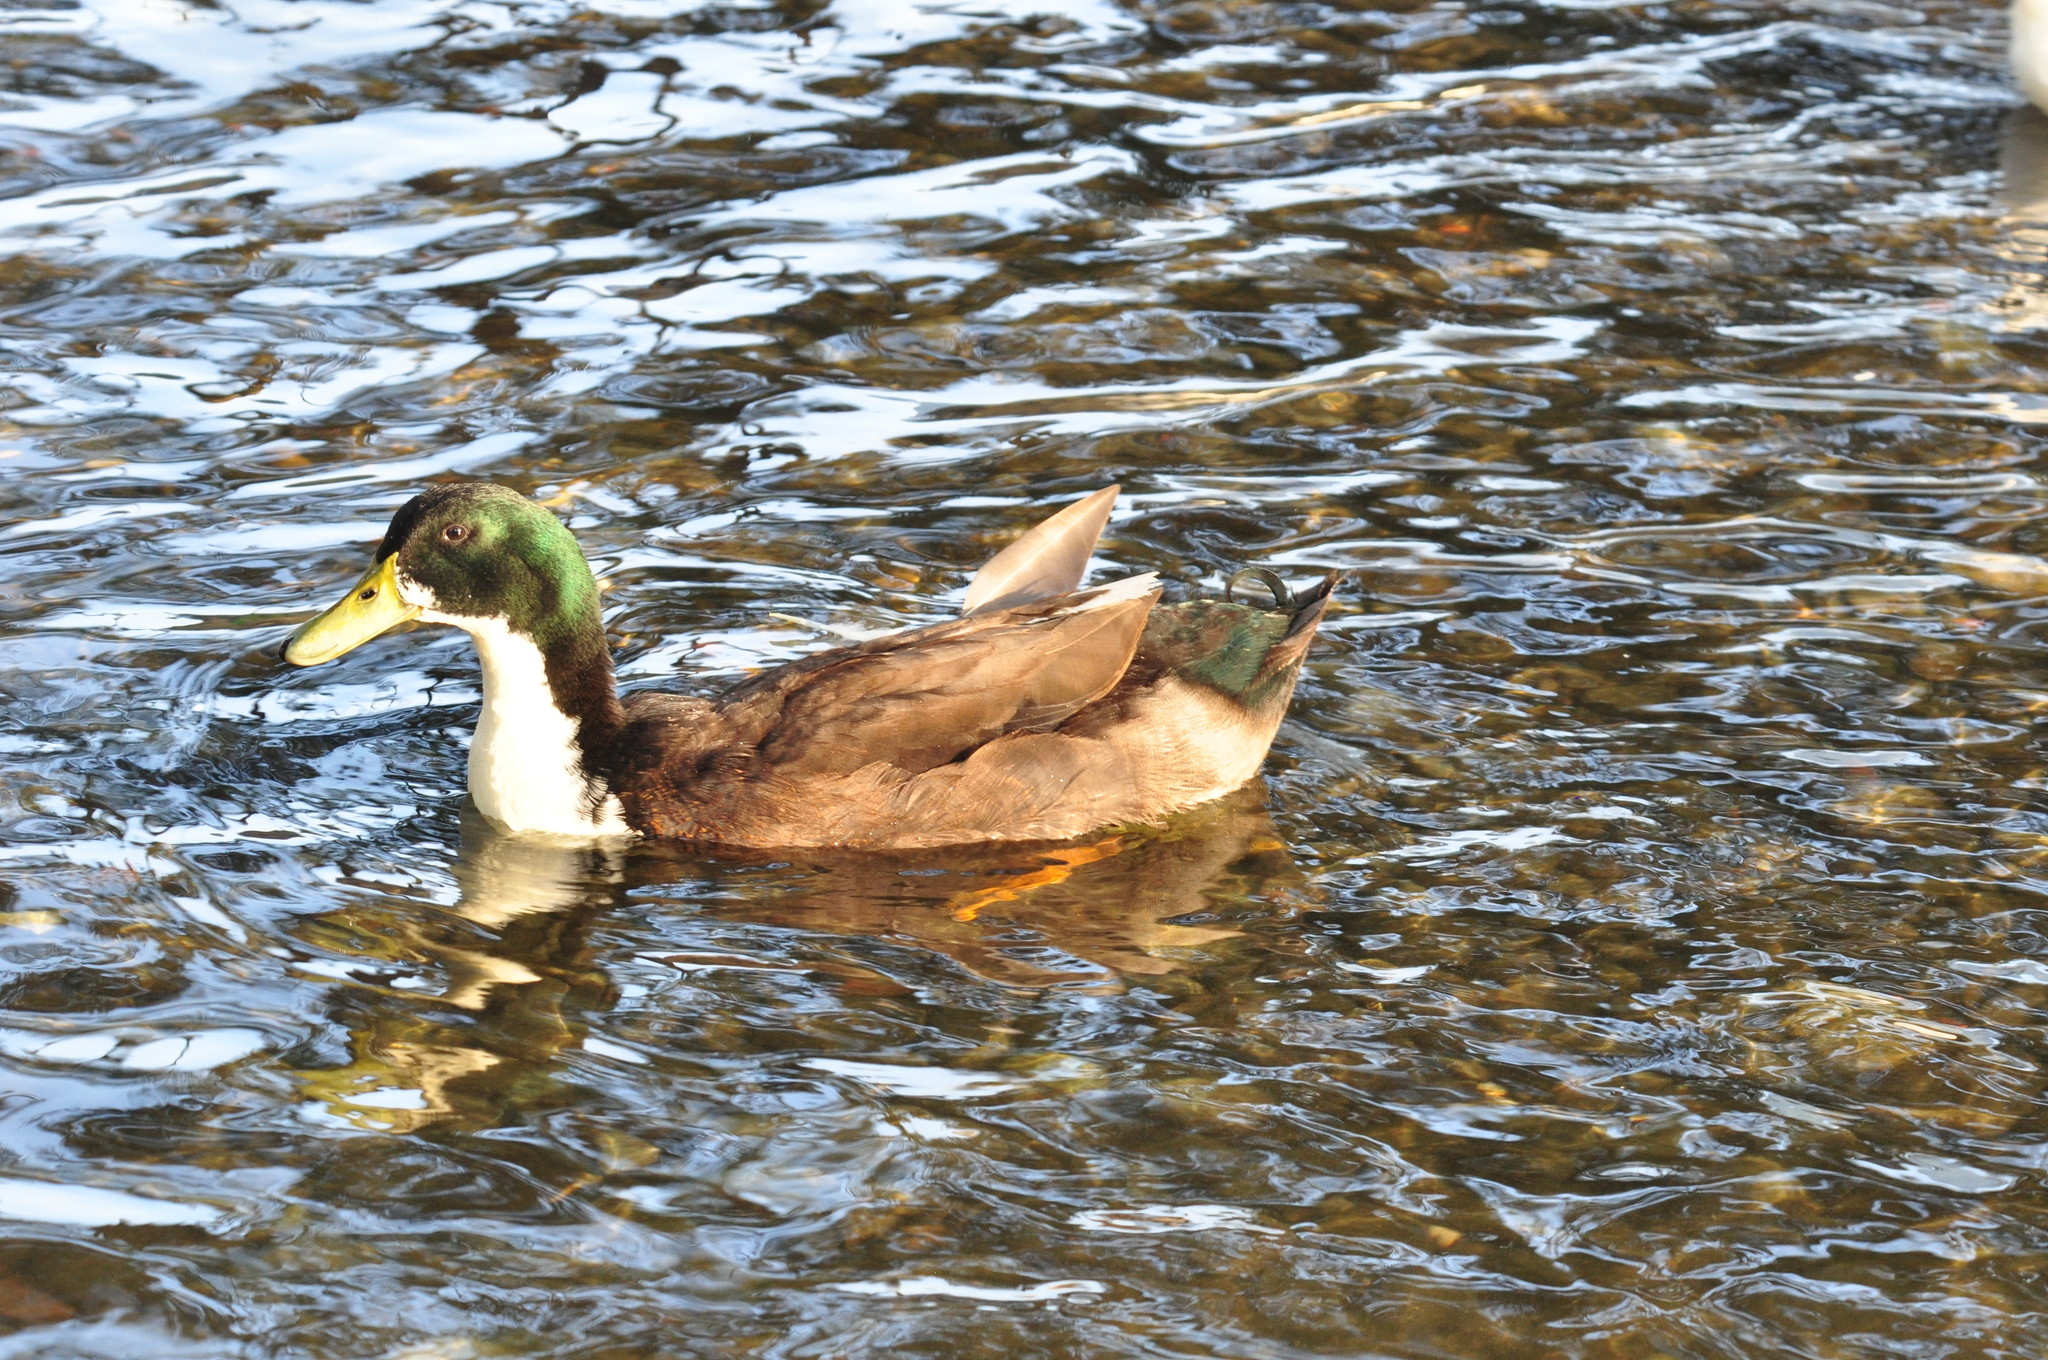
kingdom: Animalia
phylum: Chordata
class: Aves
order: Anseriformes
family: Anatidae
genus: Anas
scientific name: Anas platyrhynchos
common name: Mallard
